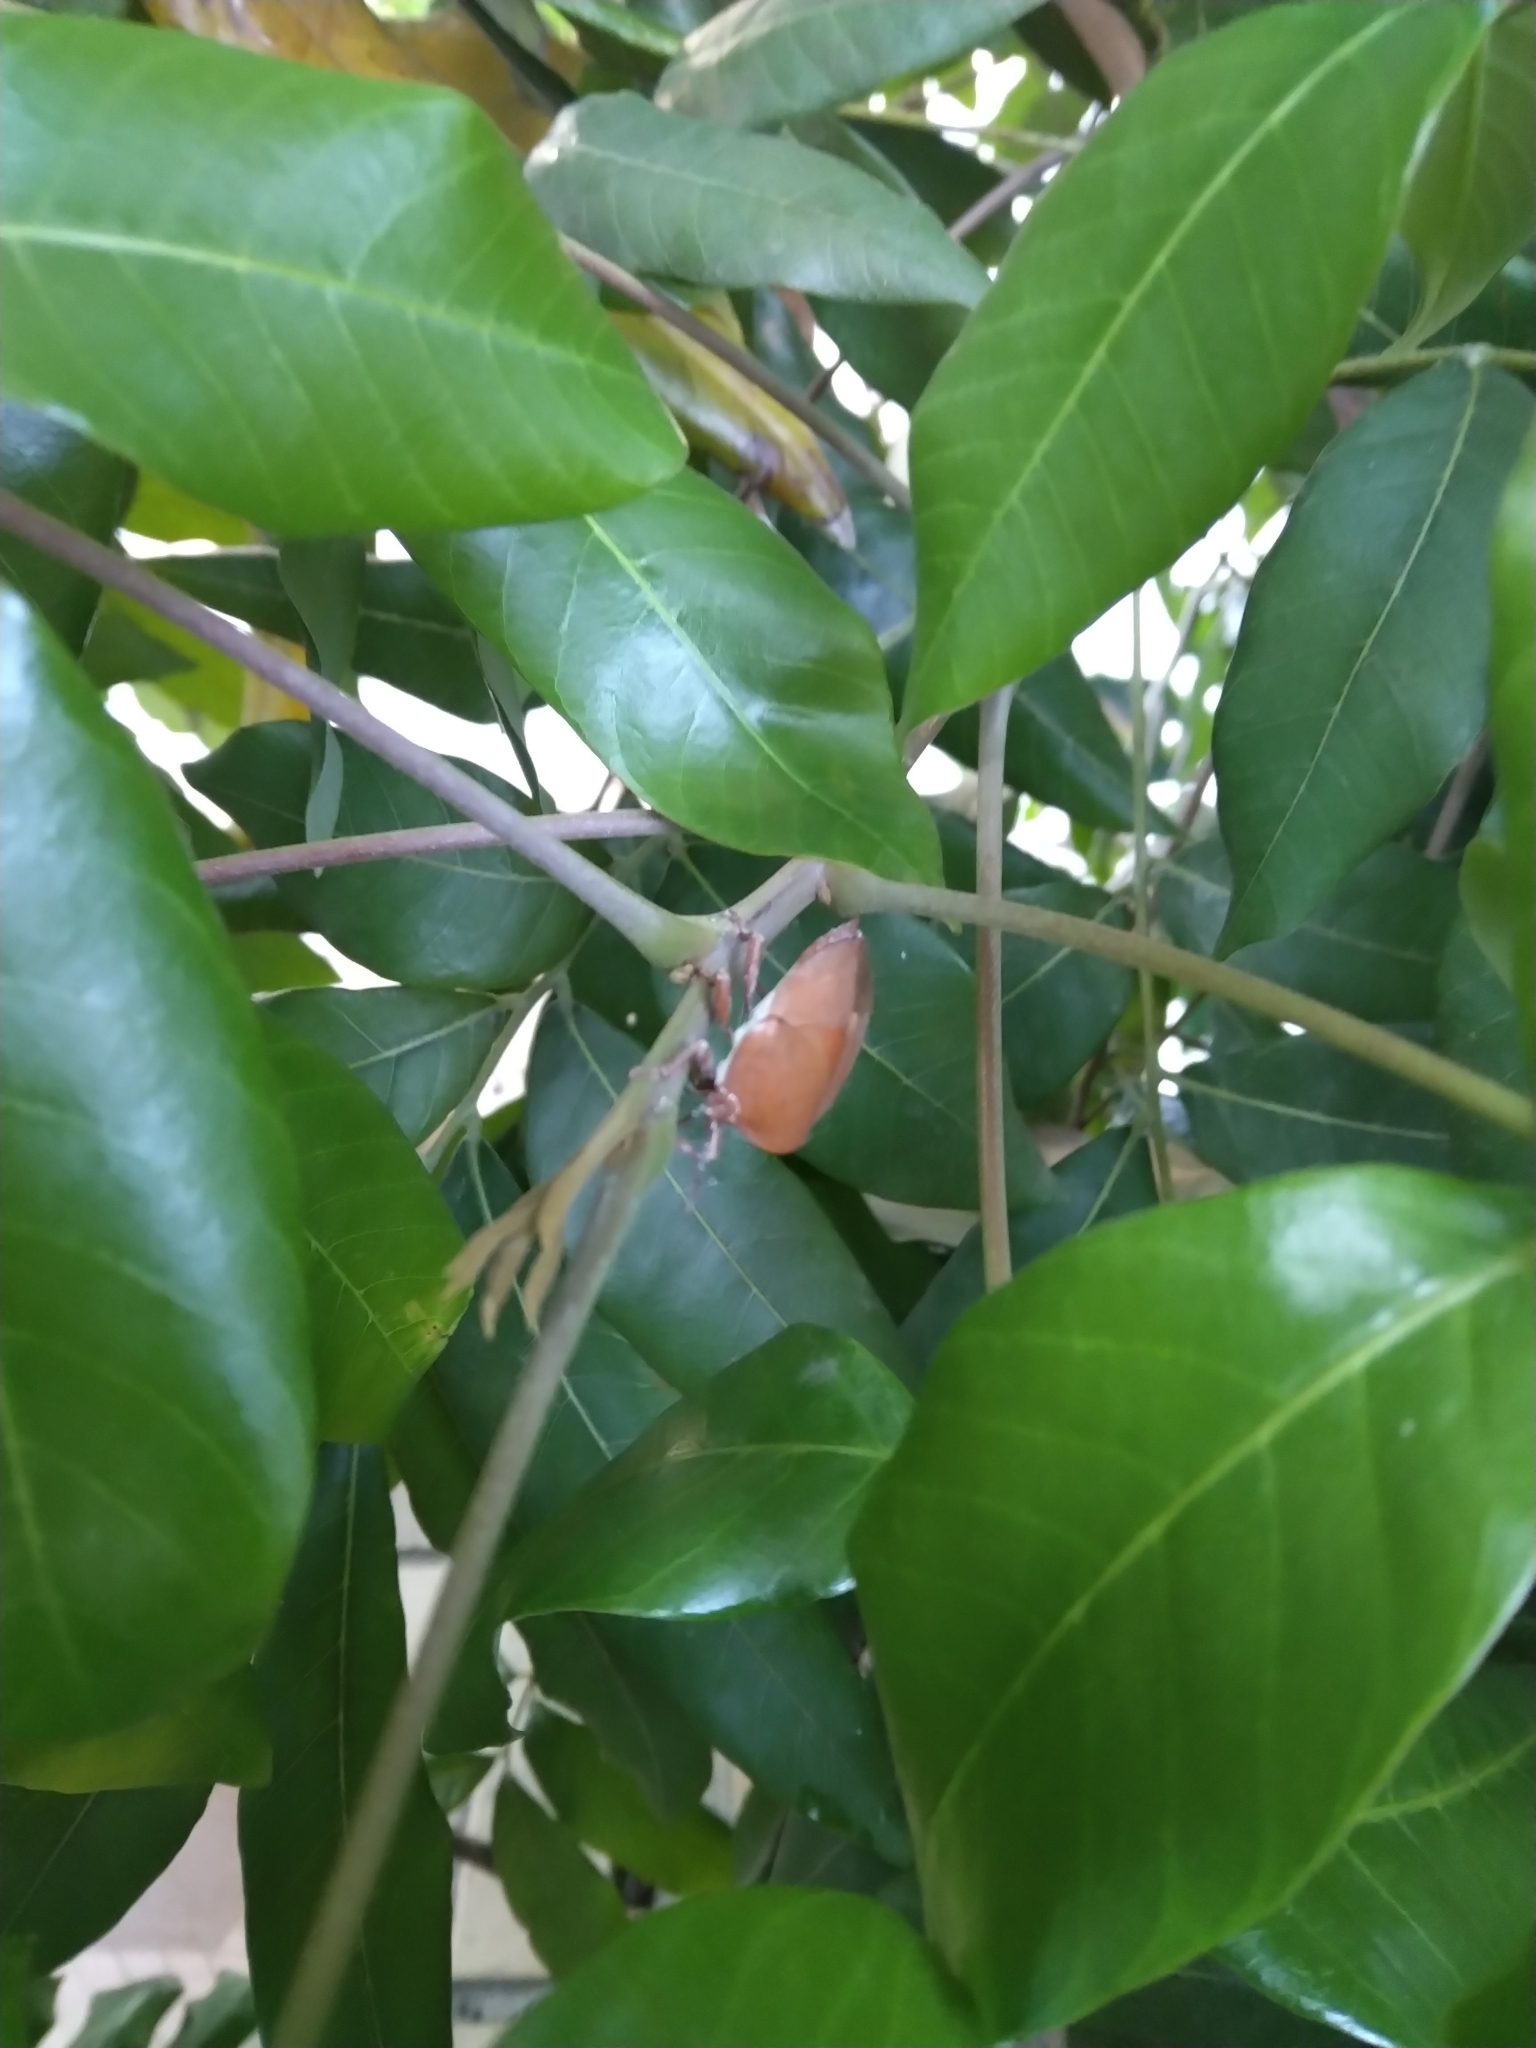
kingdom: Animalia
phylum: Arthropoda
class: Insecta
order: Hemiptera
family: Tessaratomidae
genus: Tessaratoma
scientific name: Tessaratoma papillosa
